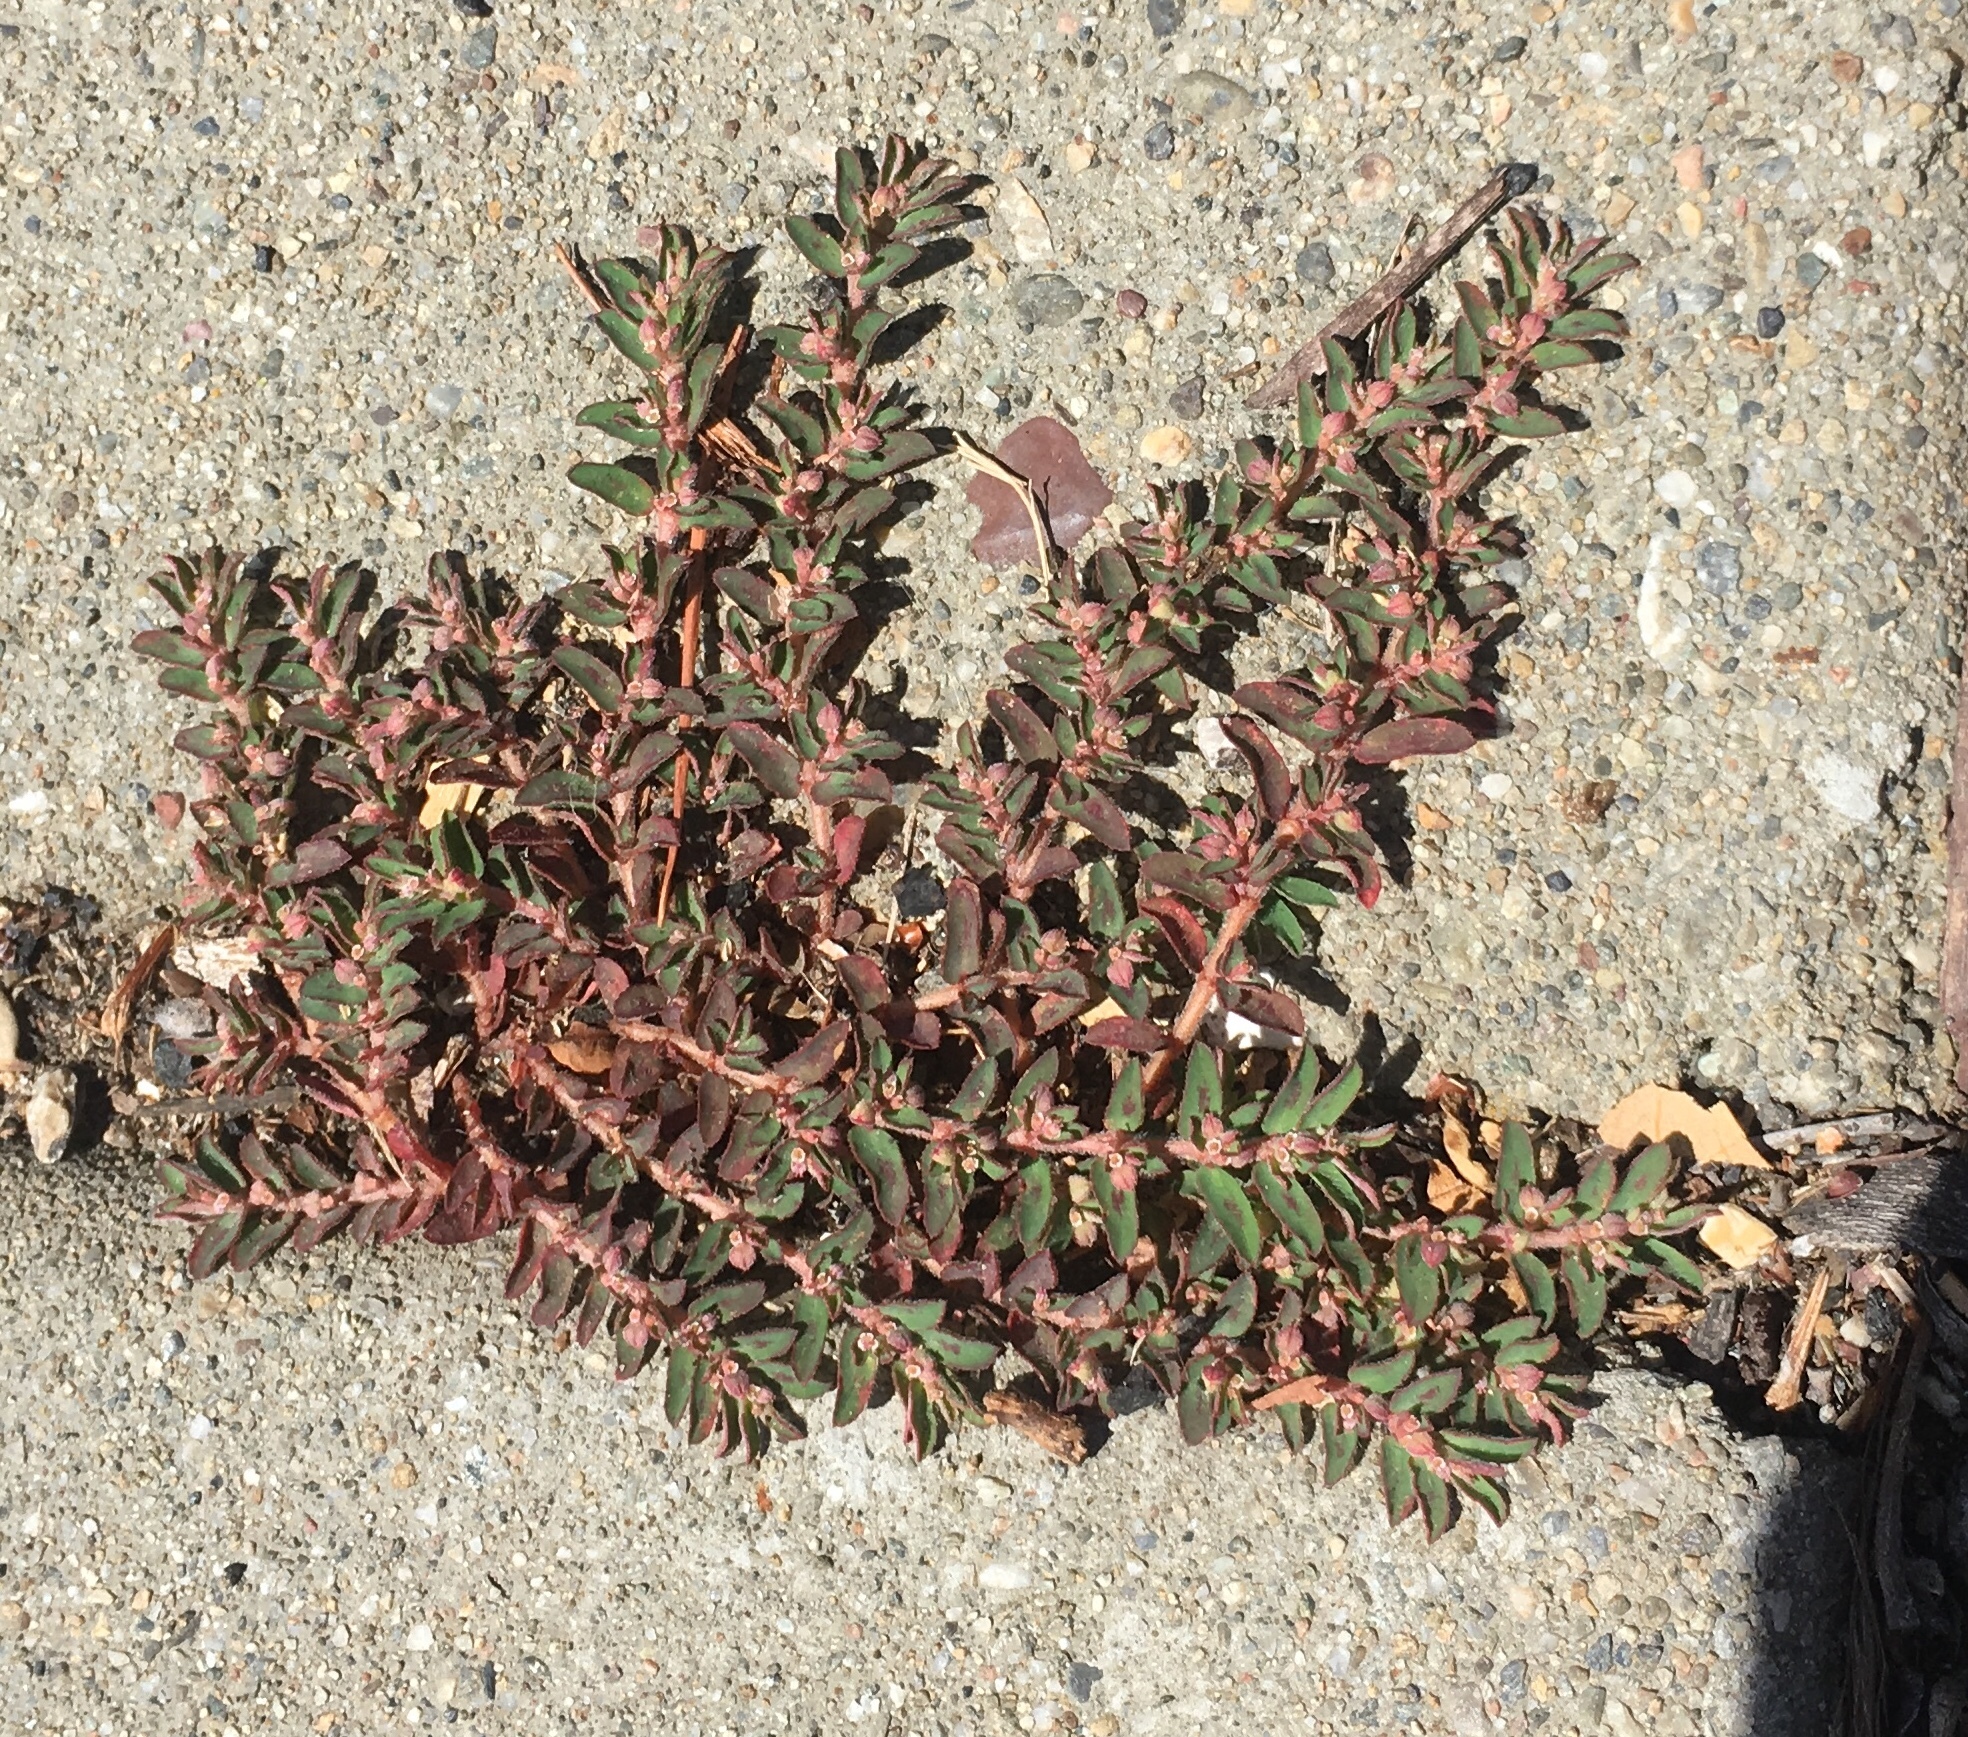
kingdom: Plantae
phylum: Tracheophyta
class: Magnoliopsida
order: Malpighiales
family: Euphorbiaceae
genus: Euphorbia
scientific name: Euphorbia maculata
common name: Spotted spurge
